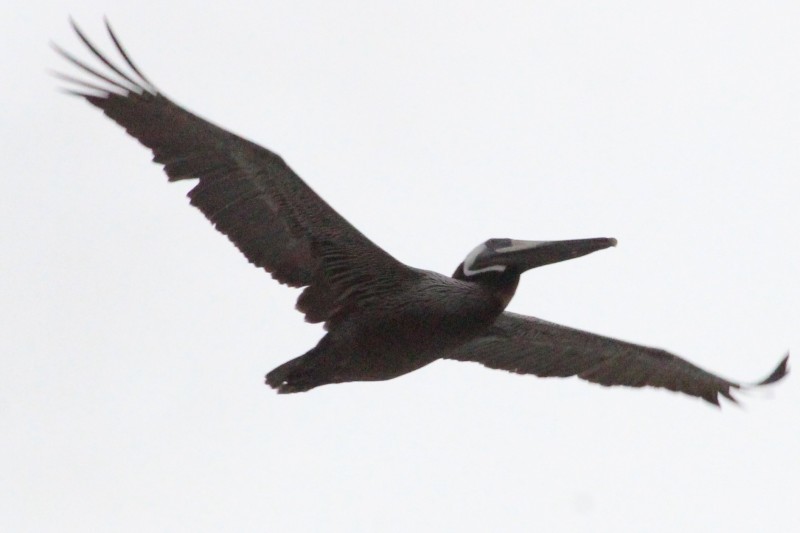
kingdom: Animalia
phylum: Chordata
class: Aves
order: Pelecaniformes
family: Pelecanidae
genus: Pelecanus
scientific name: Pelecanus occidentalis
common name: Brown pelican
